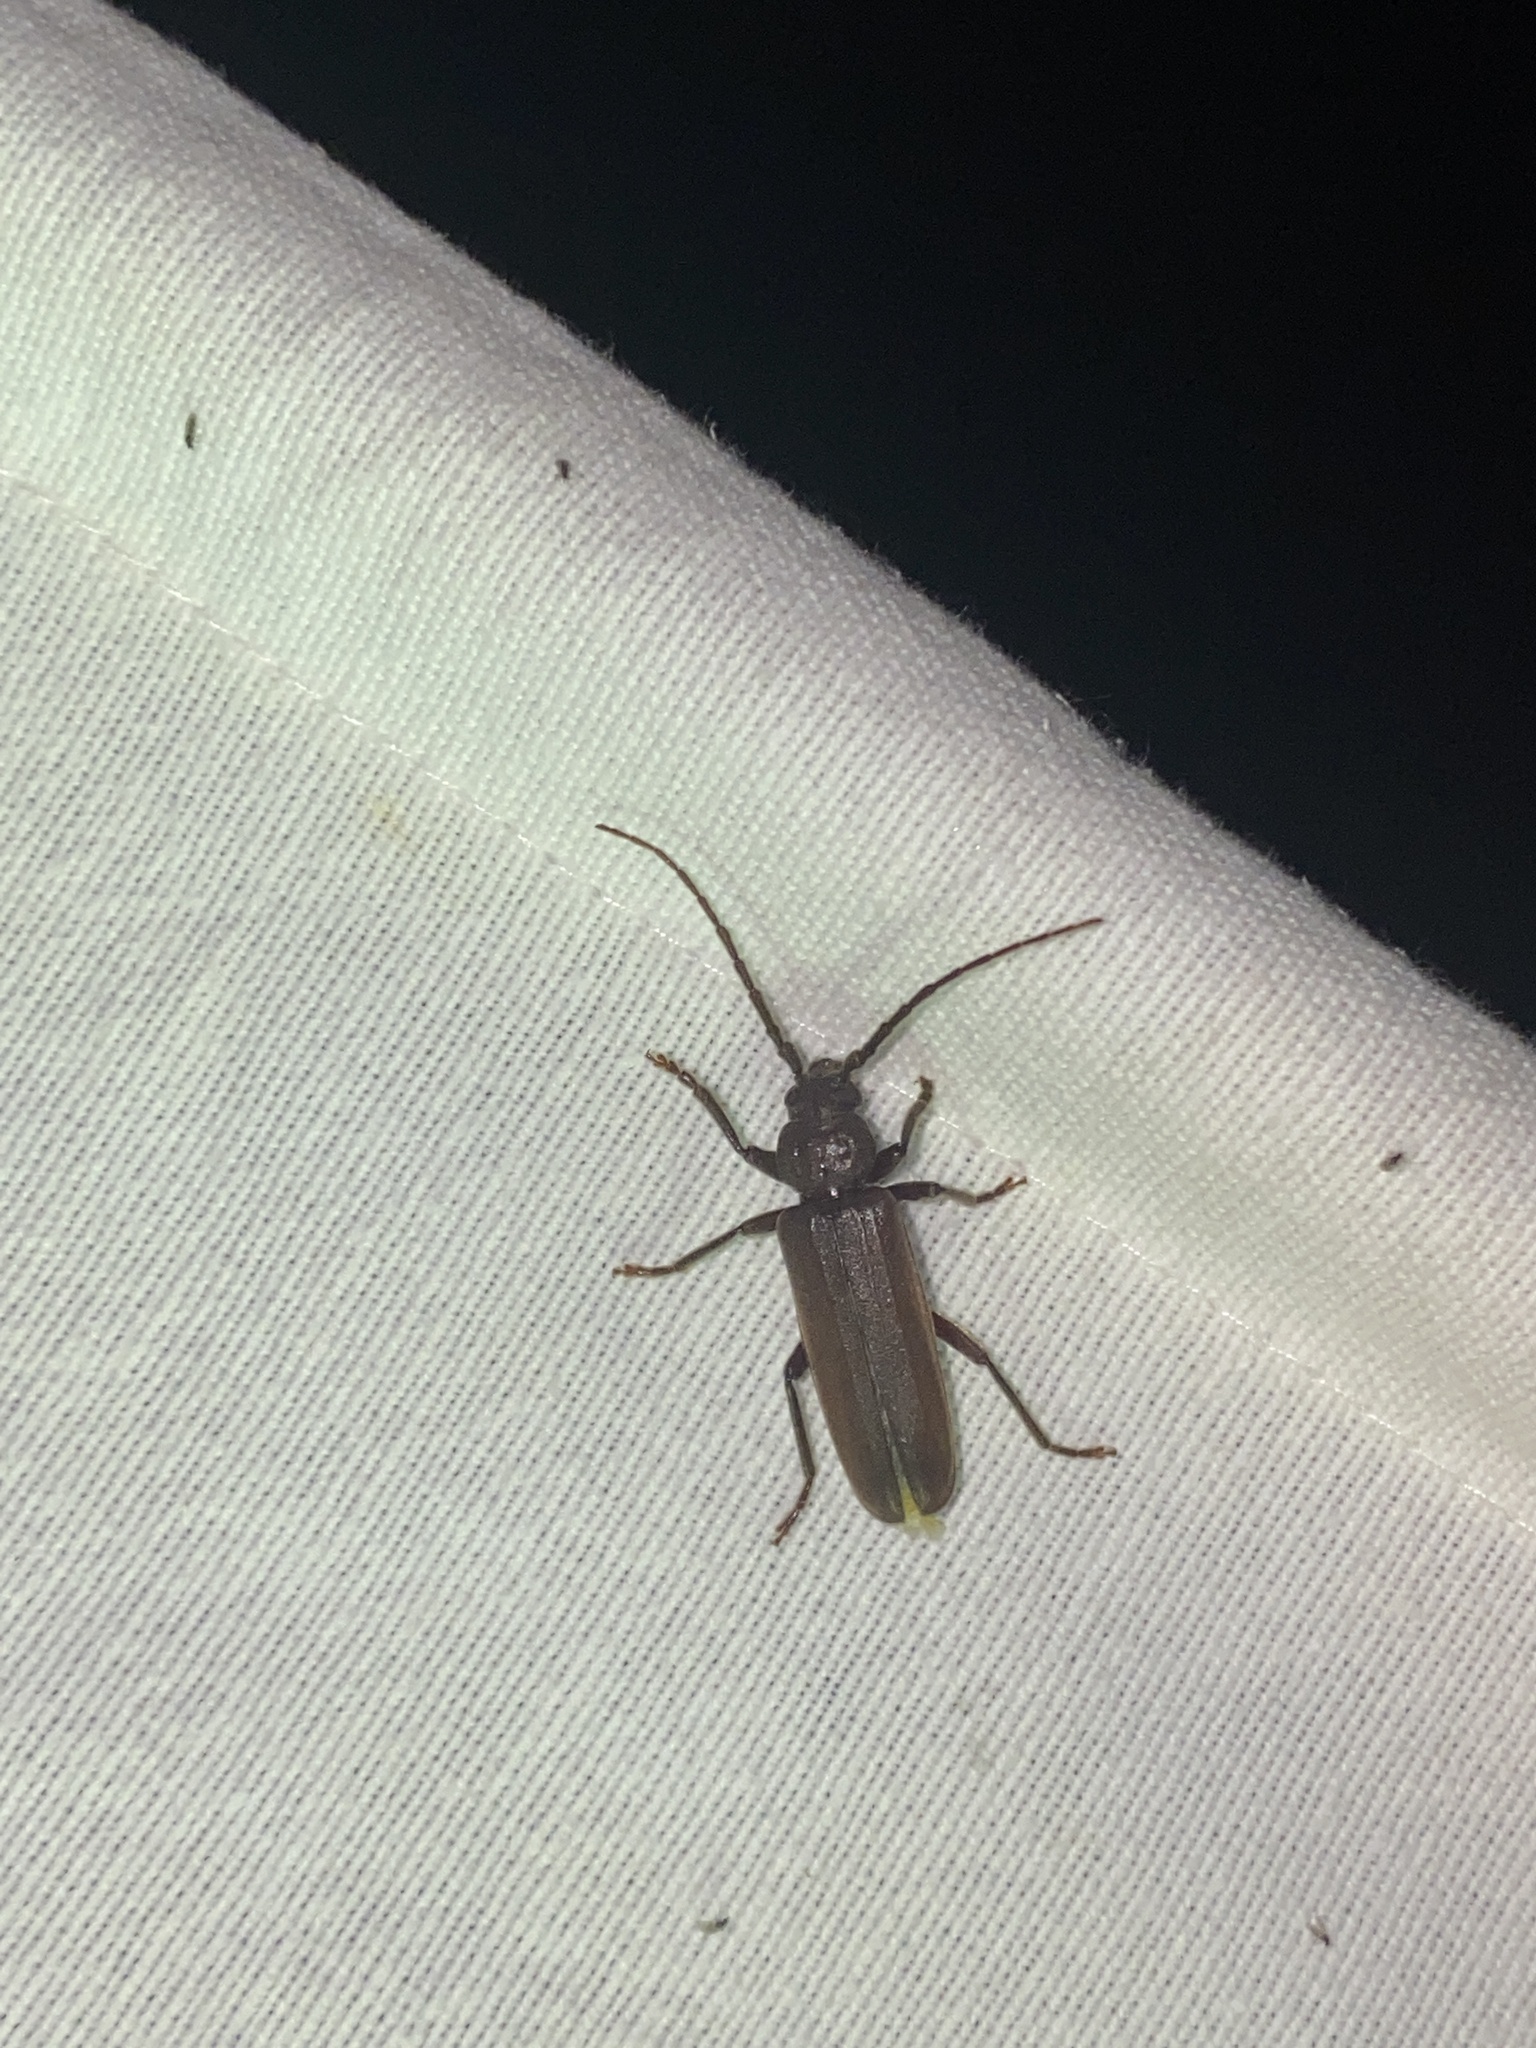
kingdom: Animalia
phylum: Arthropoda
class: Insecta
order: Coleoptera
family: Cerambycidae
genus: Arhopalus
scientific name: Arhopalus rusticus
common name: Rust pine borer
